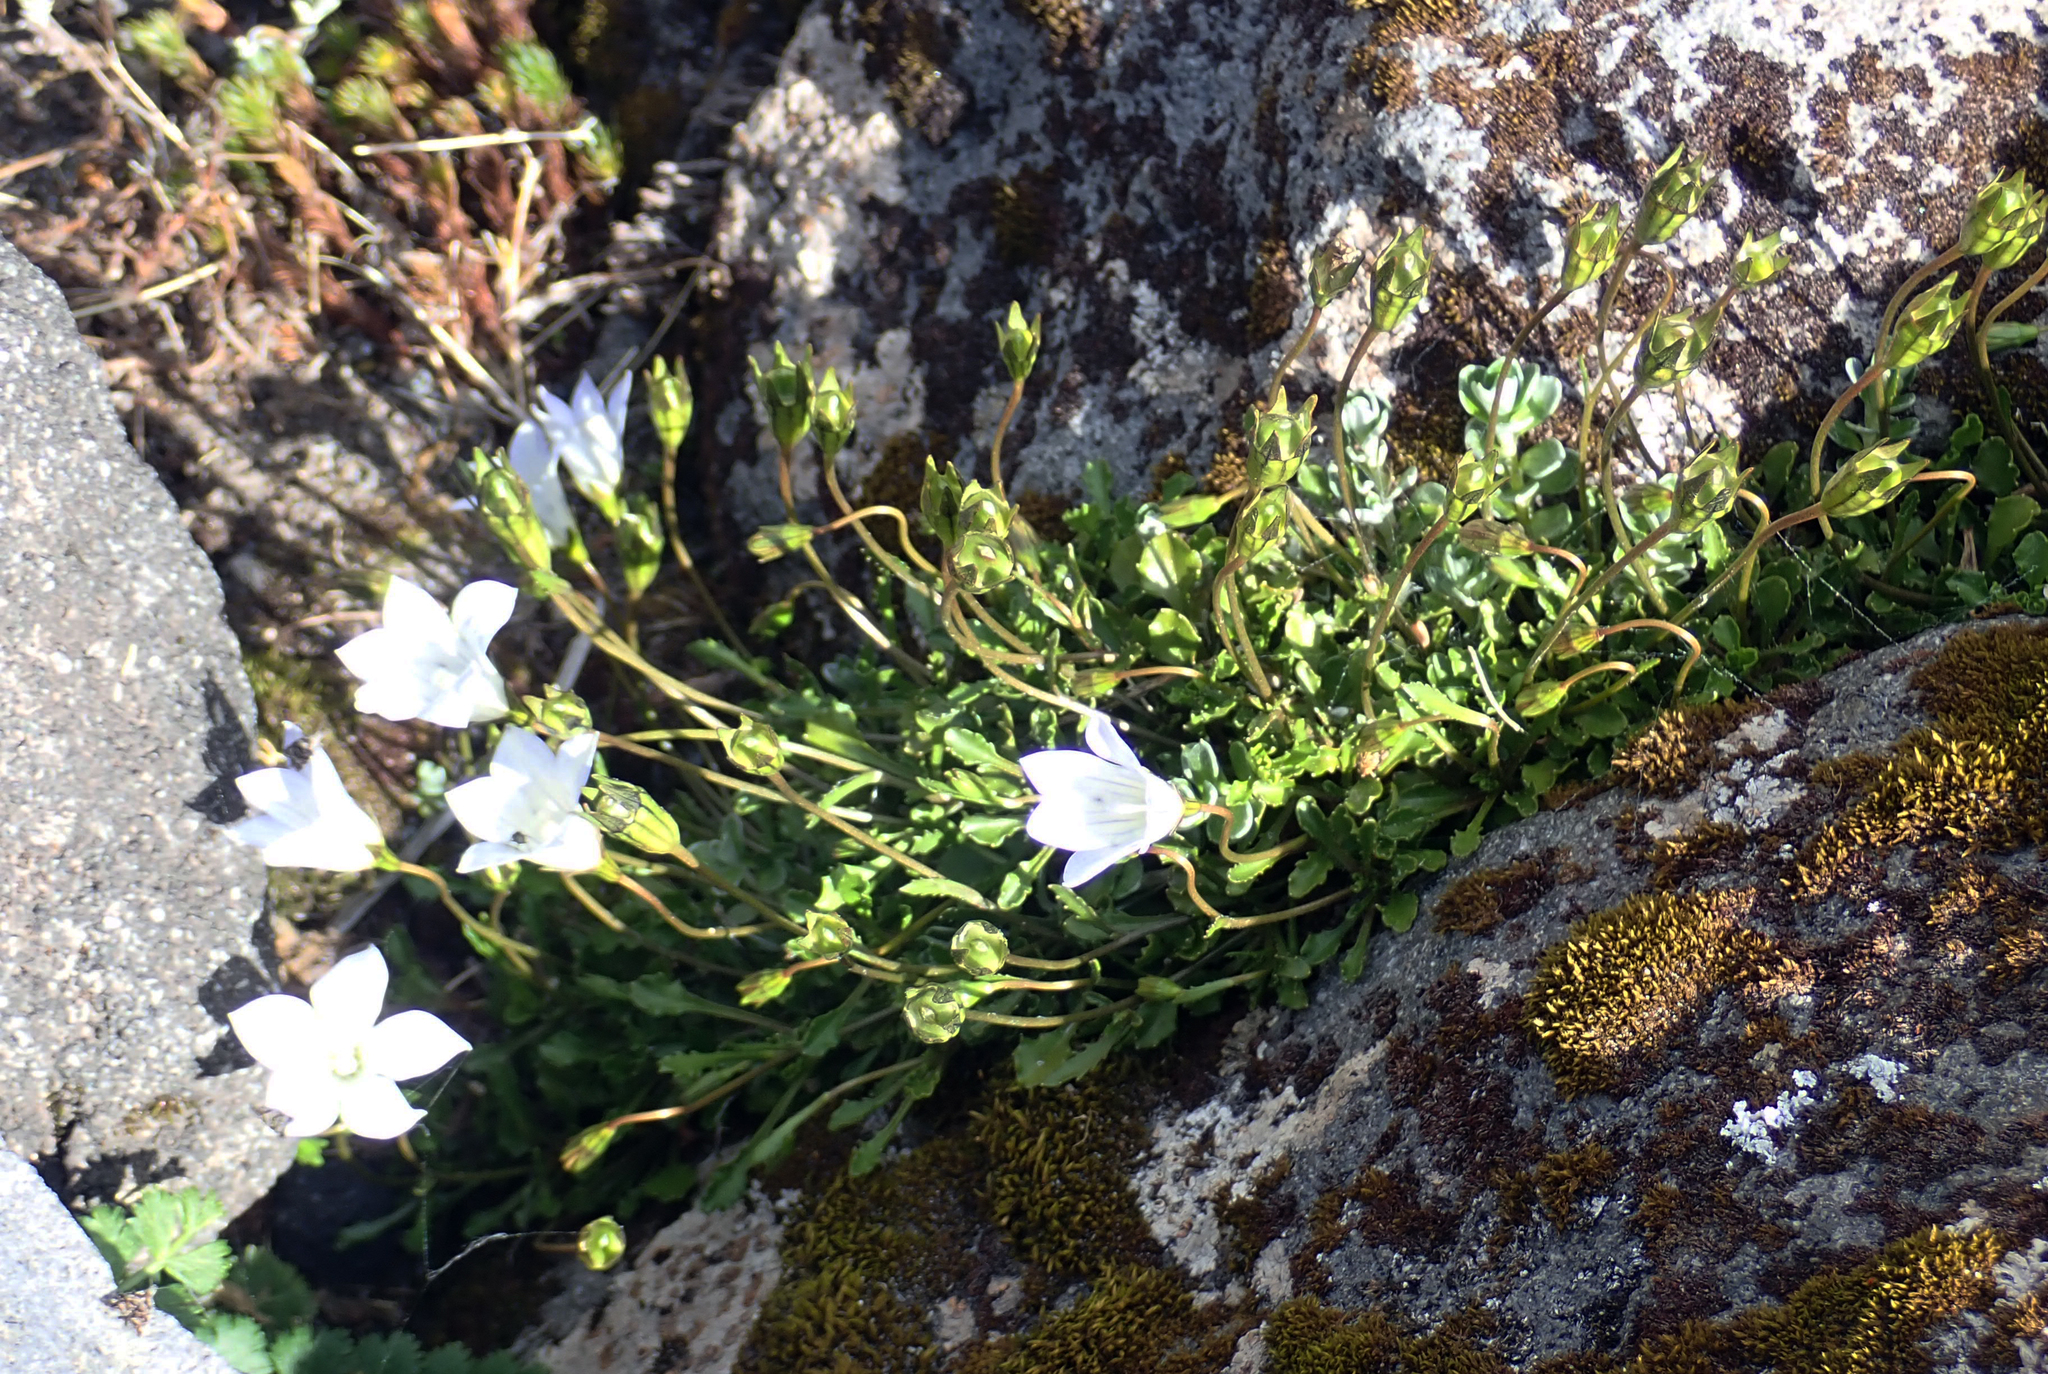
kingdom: Plantae
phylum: Tracheophyta
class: Magnoliopsida
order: Asterales
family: Campanulaceae
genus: Wahlenbergia
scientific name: Wahlenbergia pygmaea
